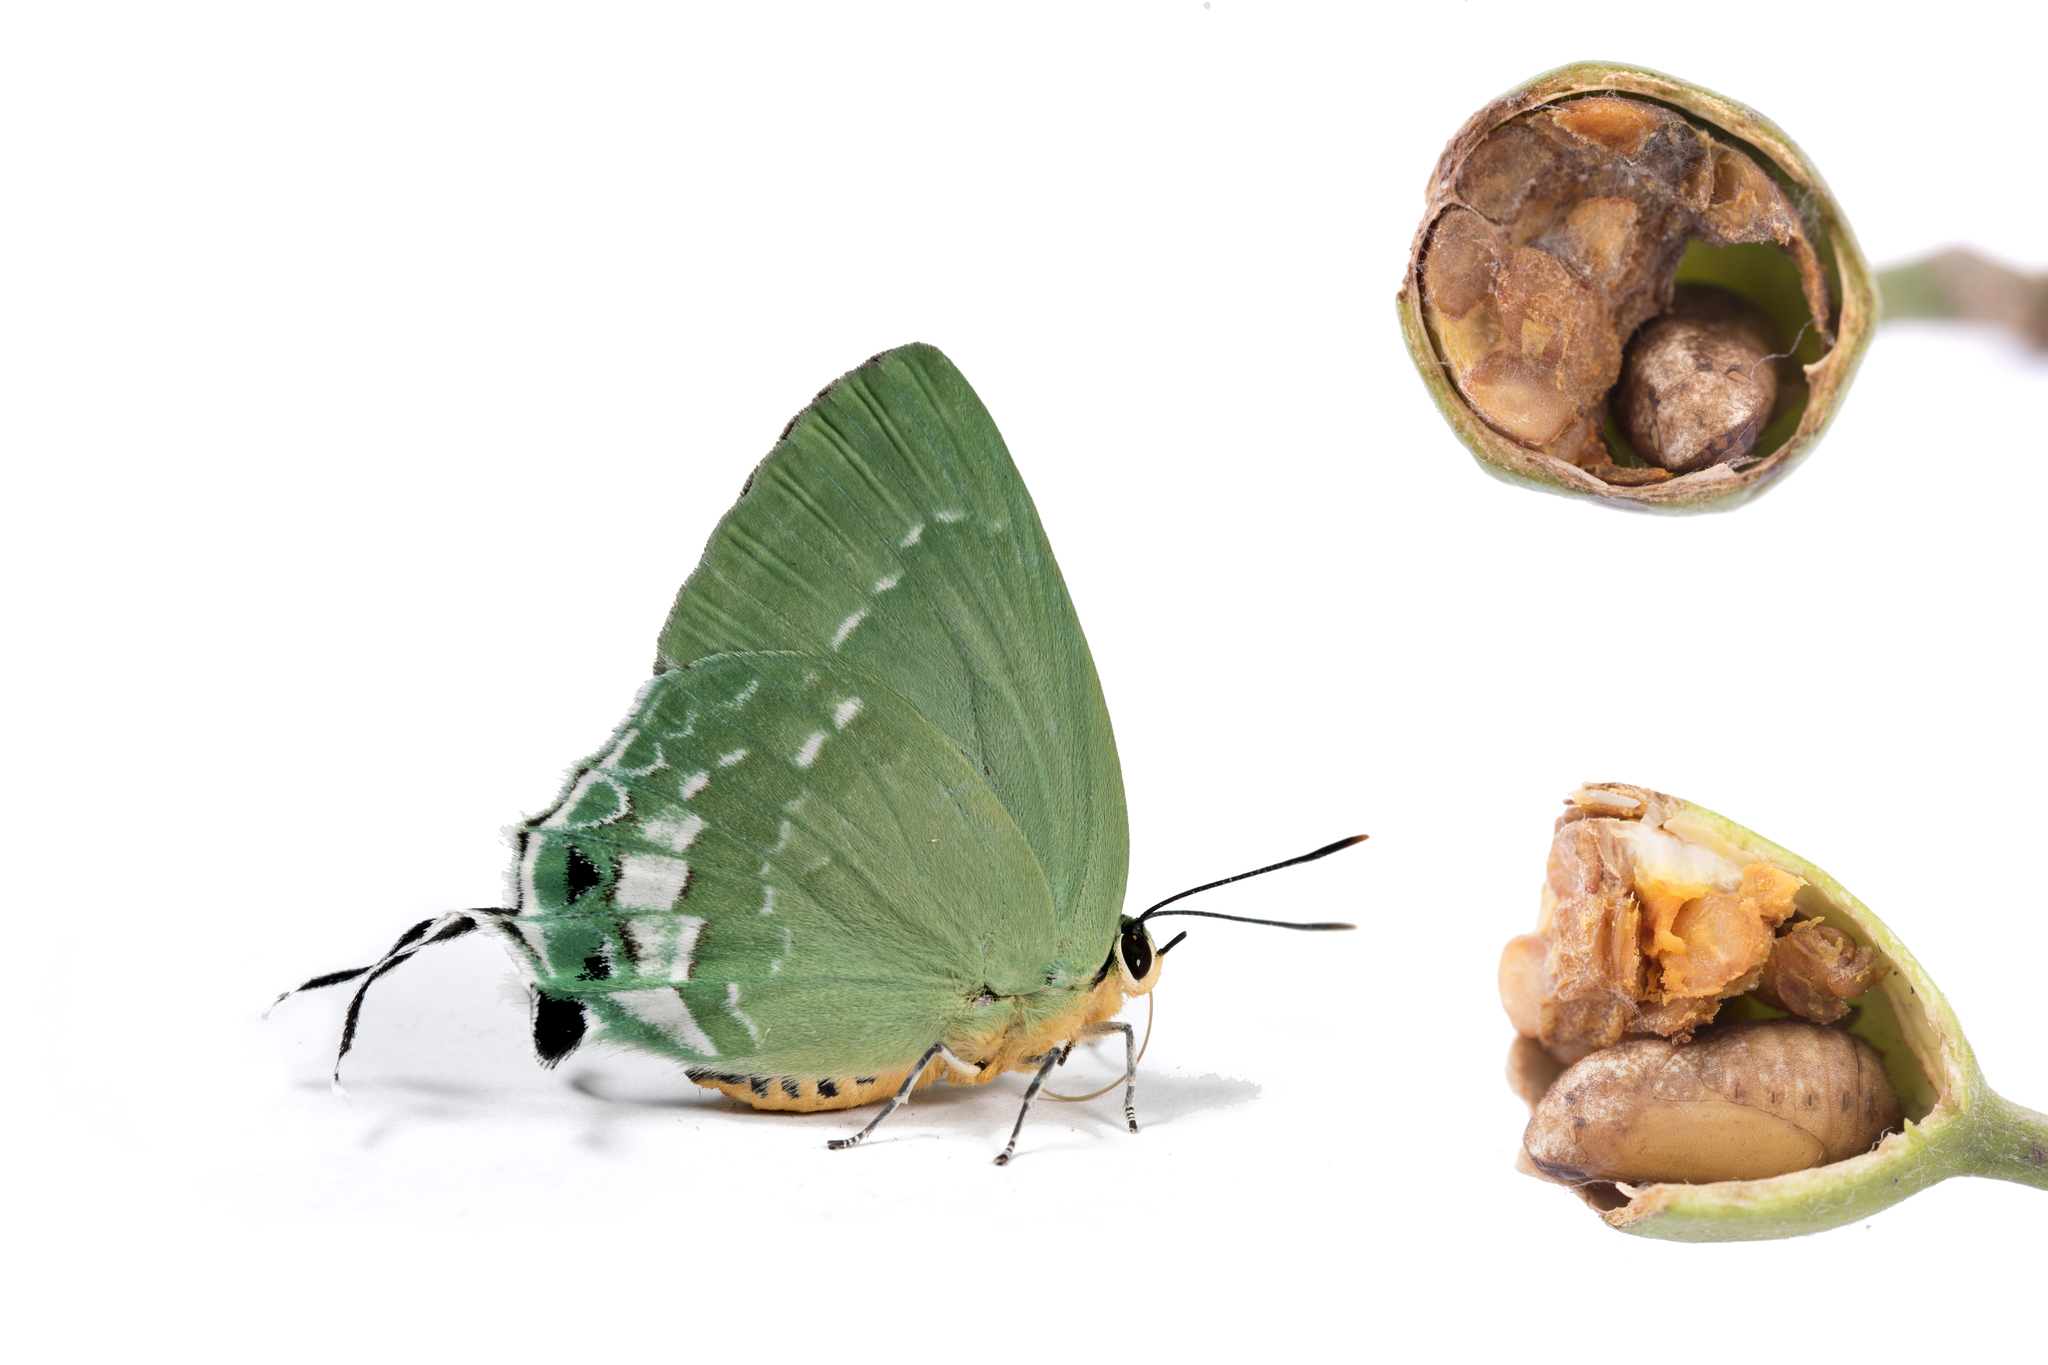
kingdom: Animalia
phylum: Arthropoda
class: Insecta
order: Lepidoptera
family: Lycaenidae
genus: Artipe
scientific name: Artipe eryx
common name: Green flash
